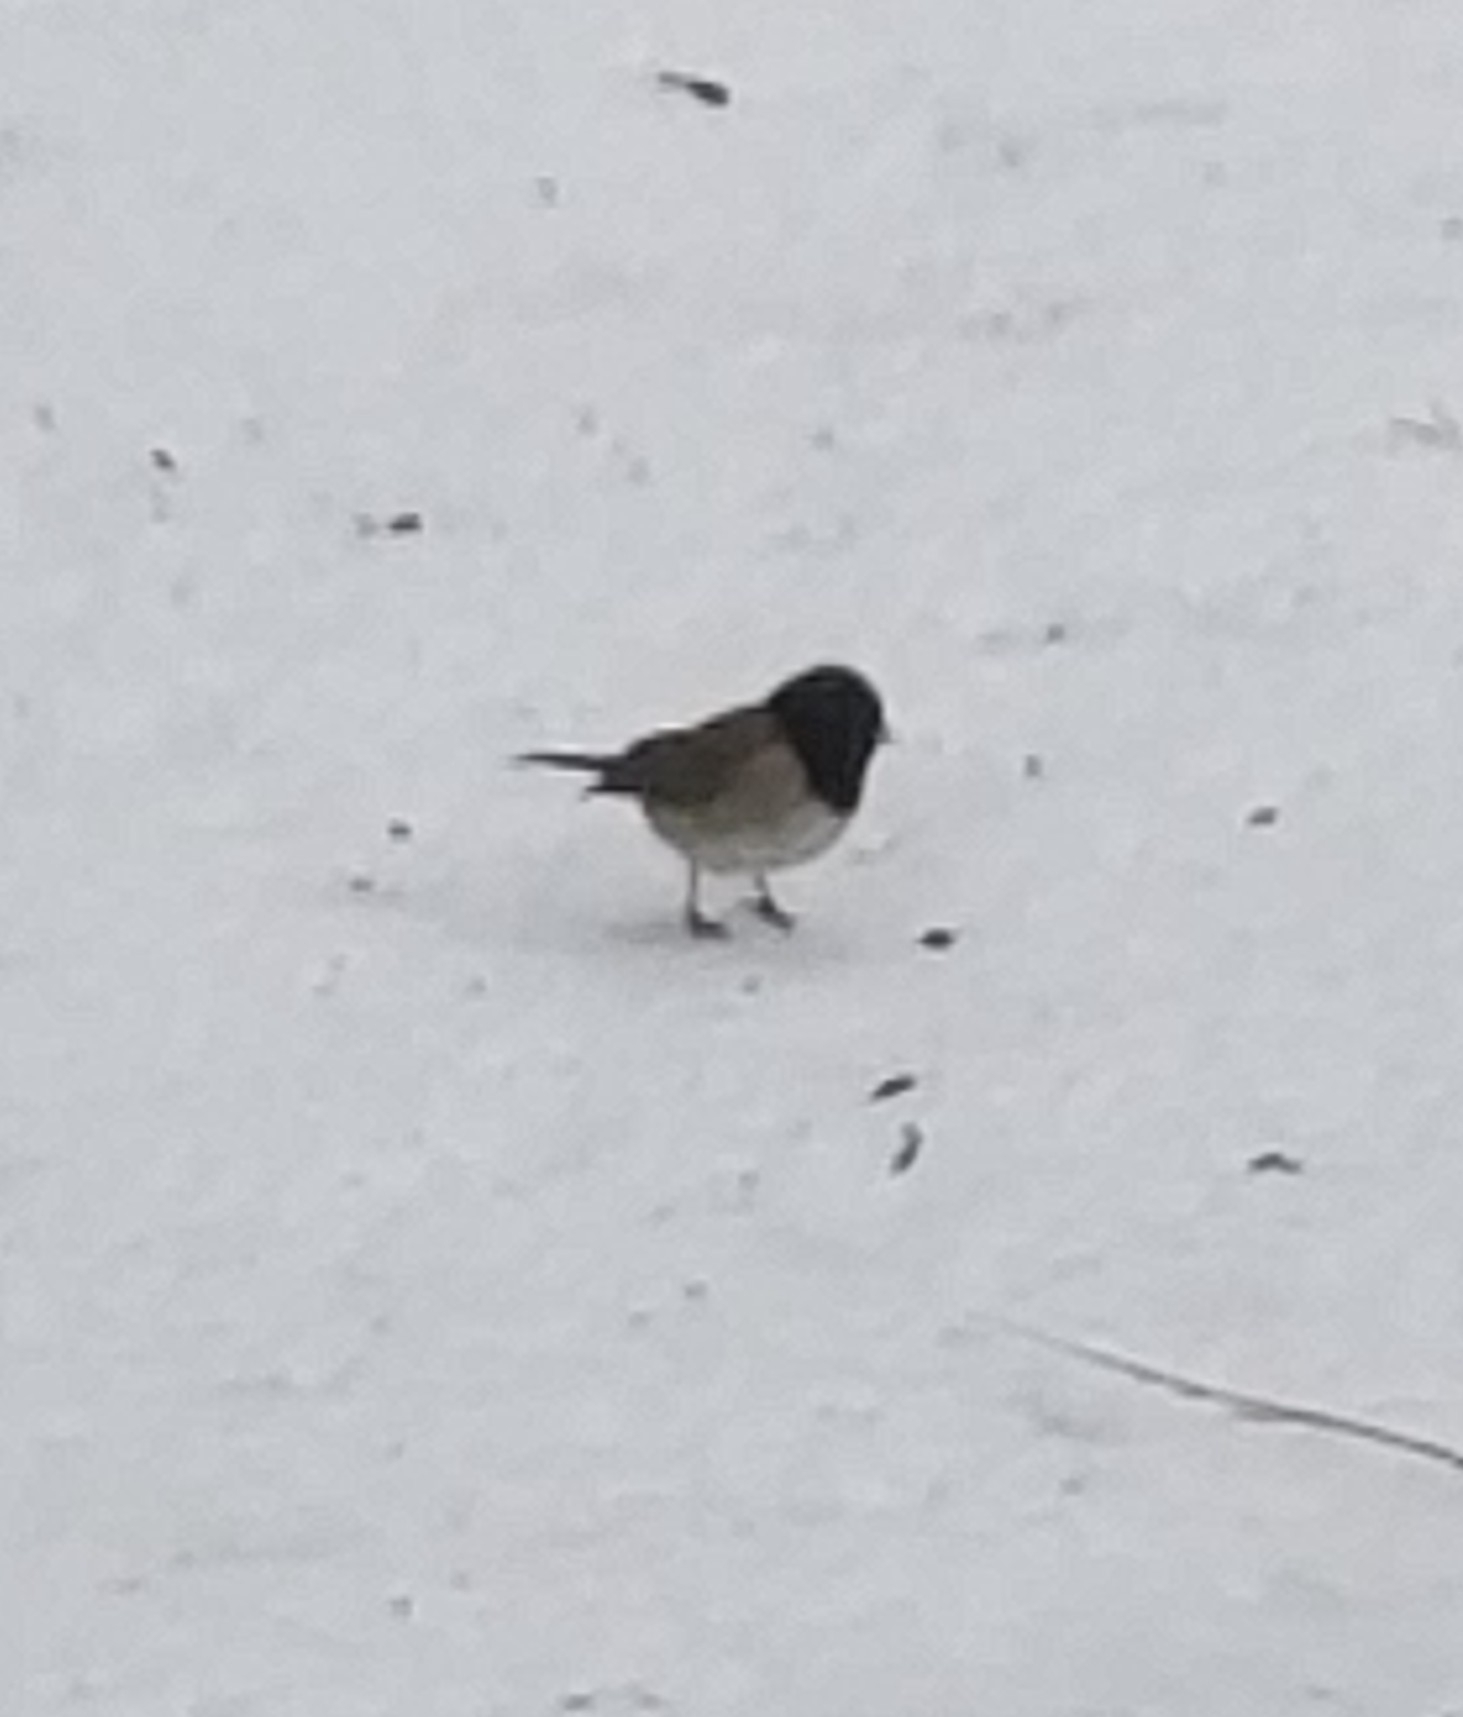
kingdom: Animalia
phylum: Chordata
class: Aves
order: Passeriformes
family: Passerellidae
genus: Junco
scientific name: Junco hyemalis
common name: Dark-eyed junco
